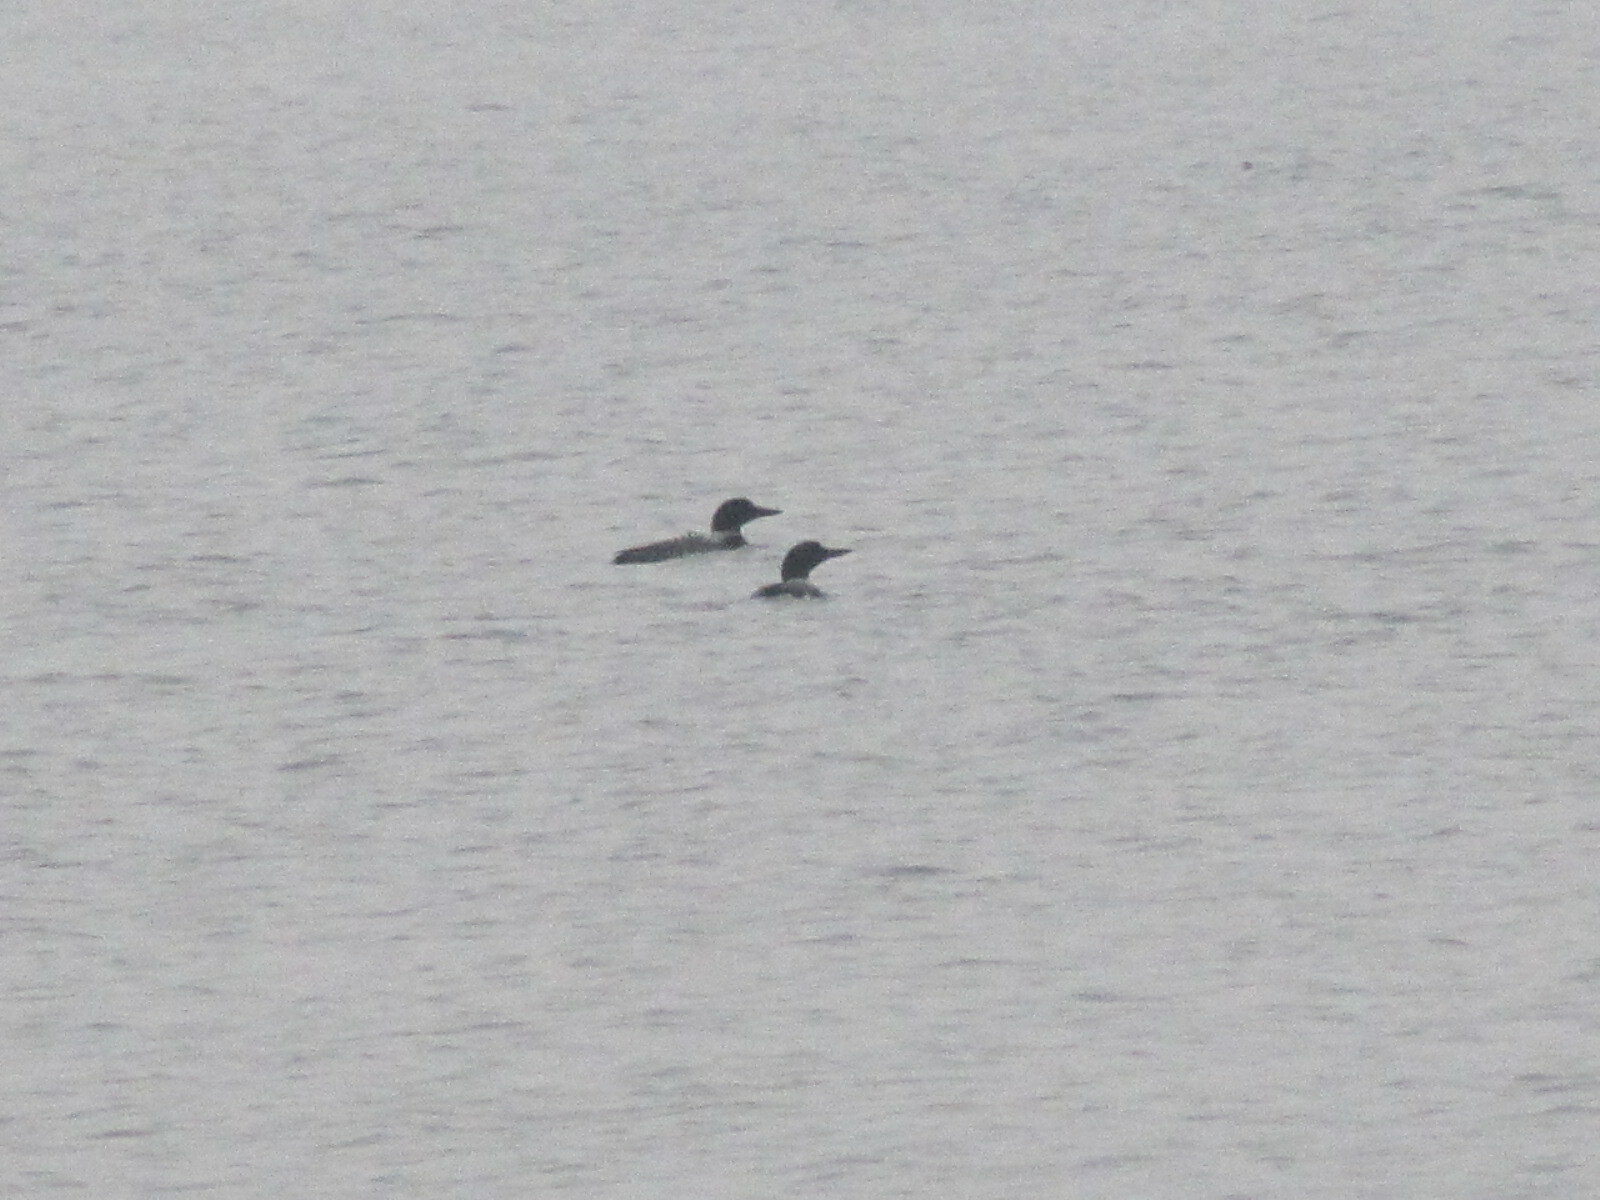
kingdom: Animalia
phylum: Chordata
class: Aves
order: Gaviiformes
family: Gaviidae
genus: Gavia
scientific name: Gavia immer
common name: Common loon
